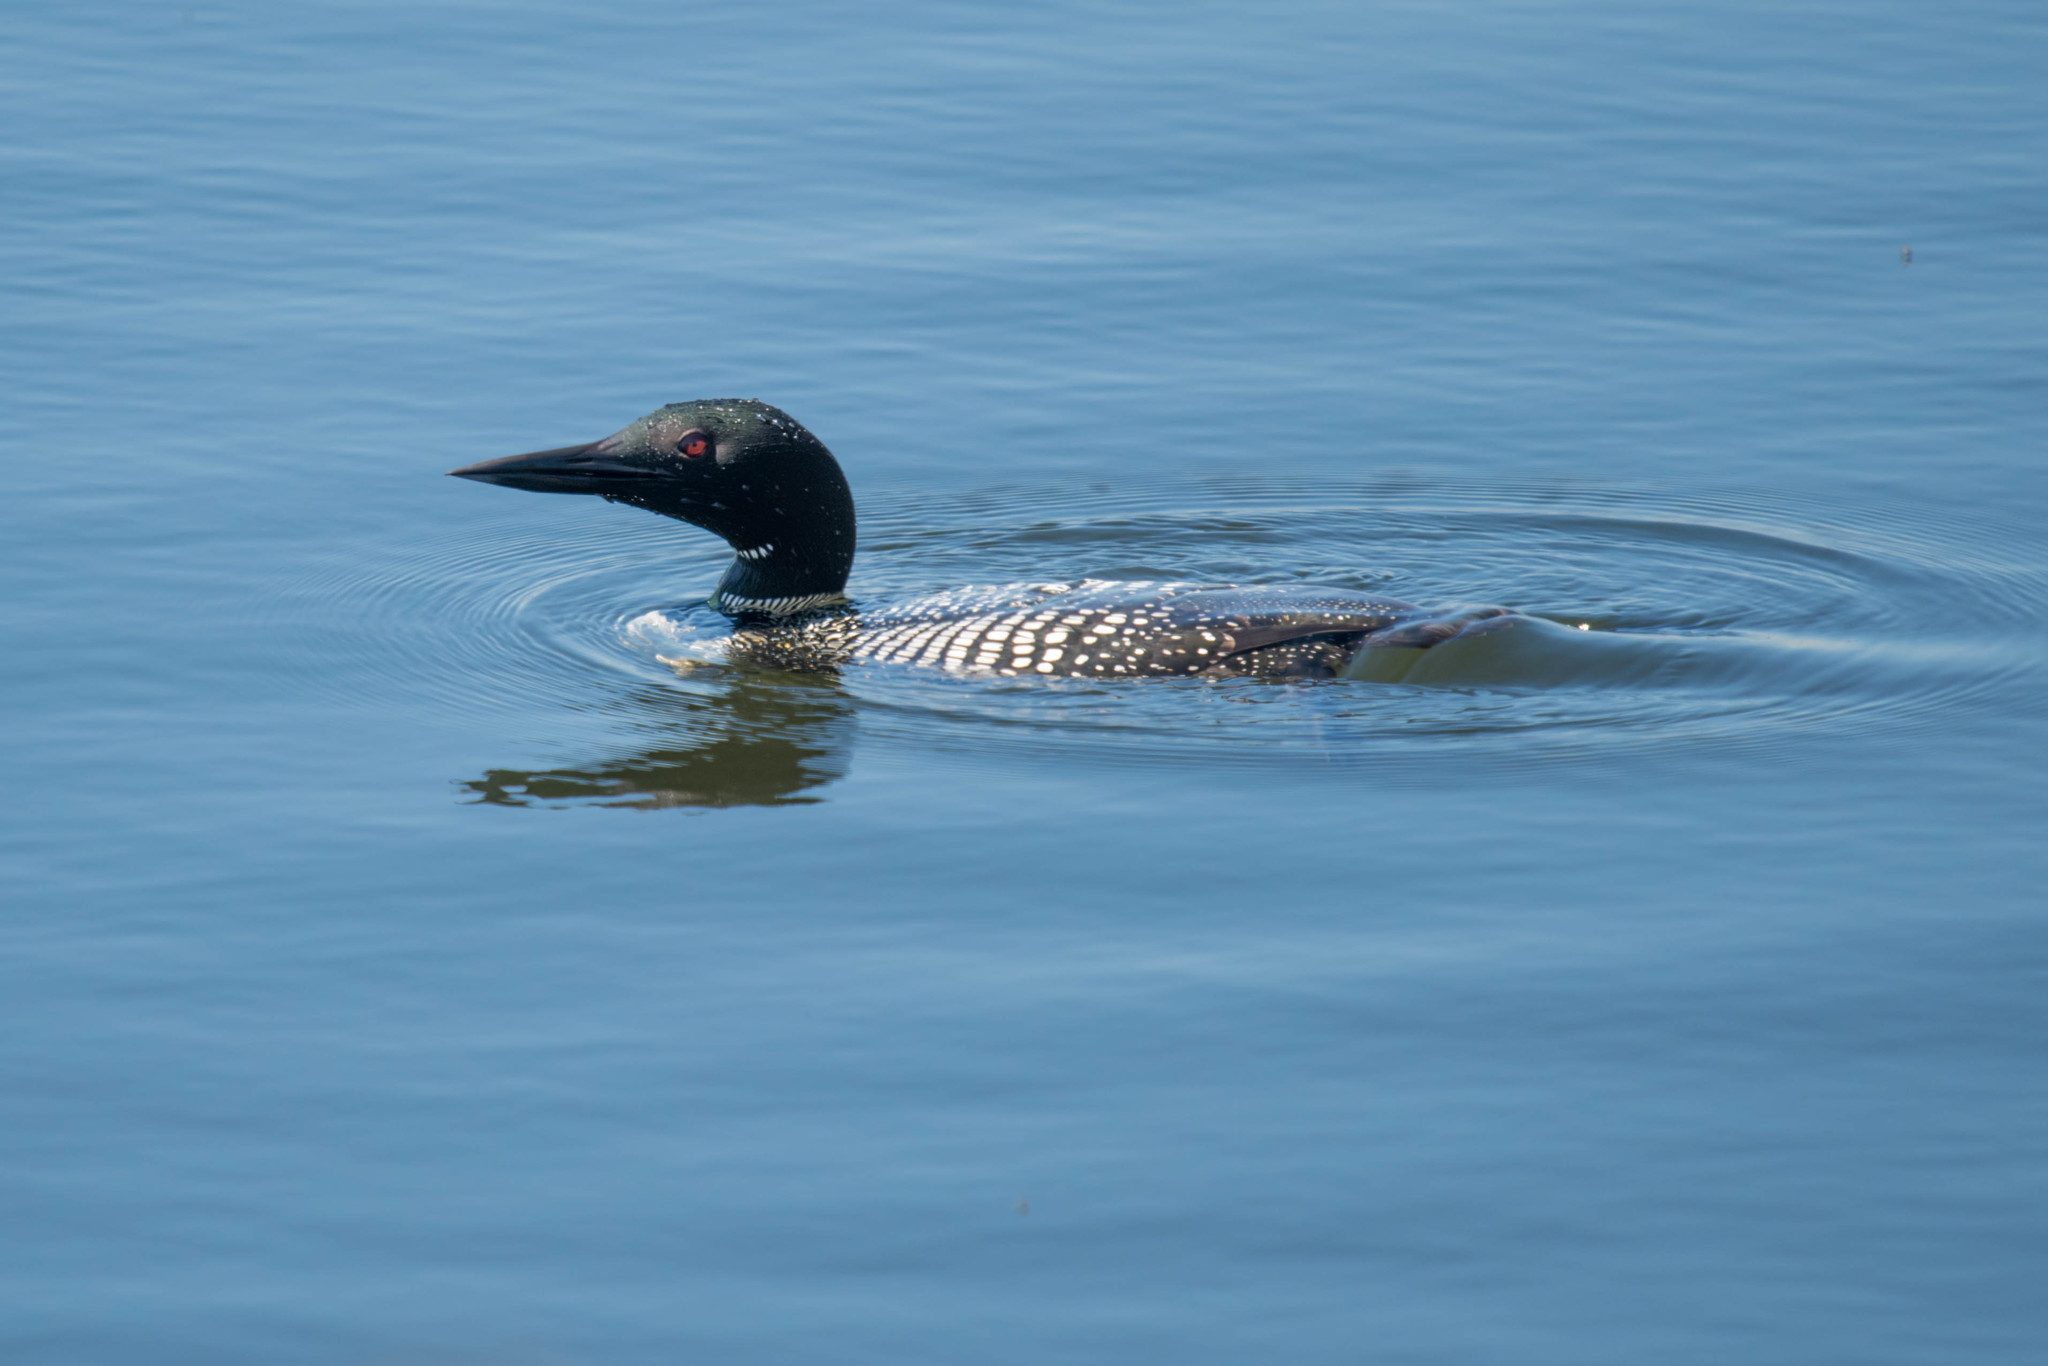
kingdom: Animalia
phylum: Chordata
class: Aves
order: Gaviiformes
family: Gaviidae
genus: Gavia
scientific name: Gavia immer
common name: Common loon
